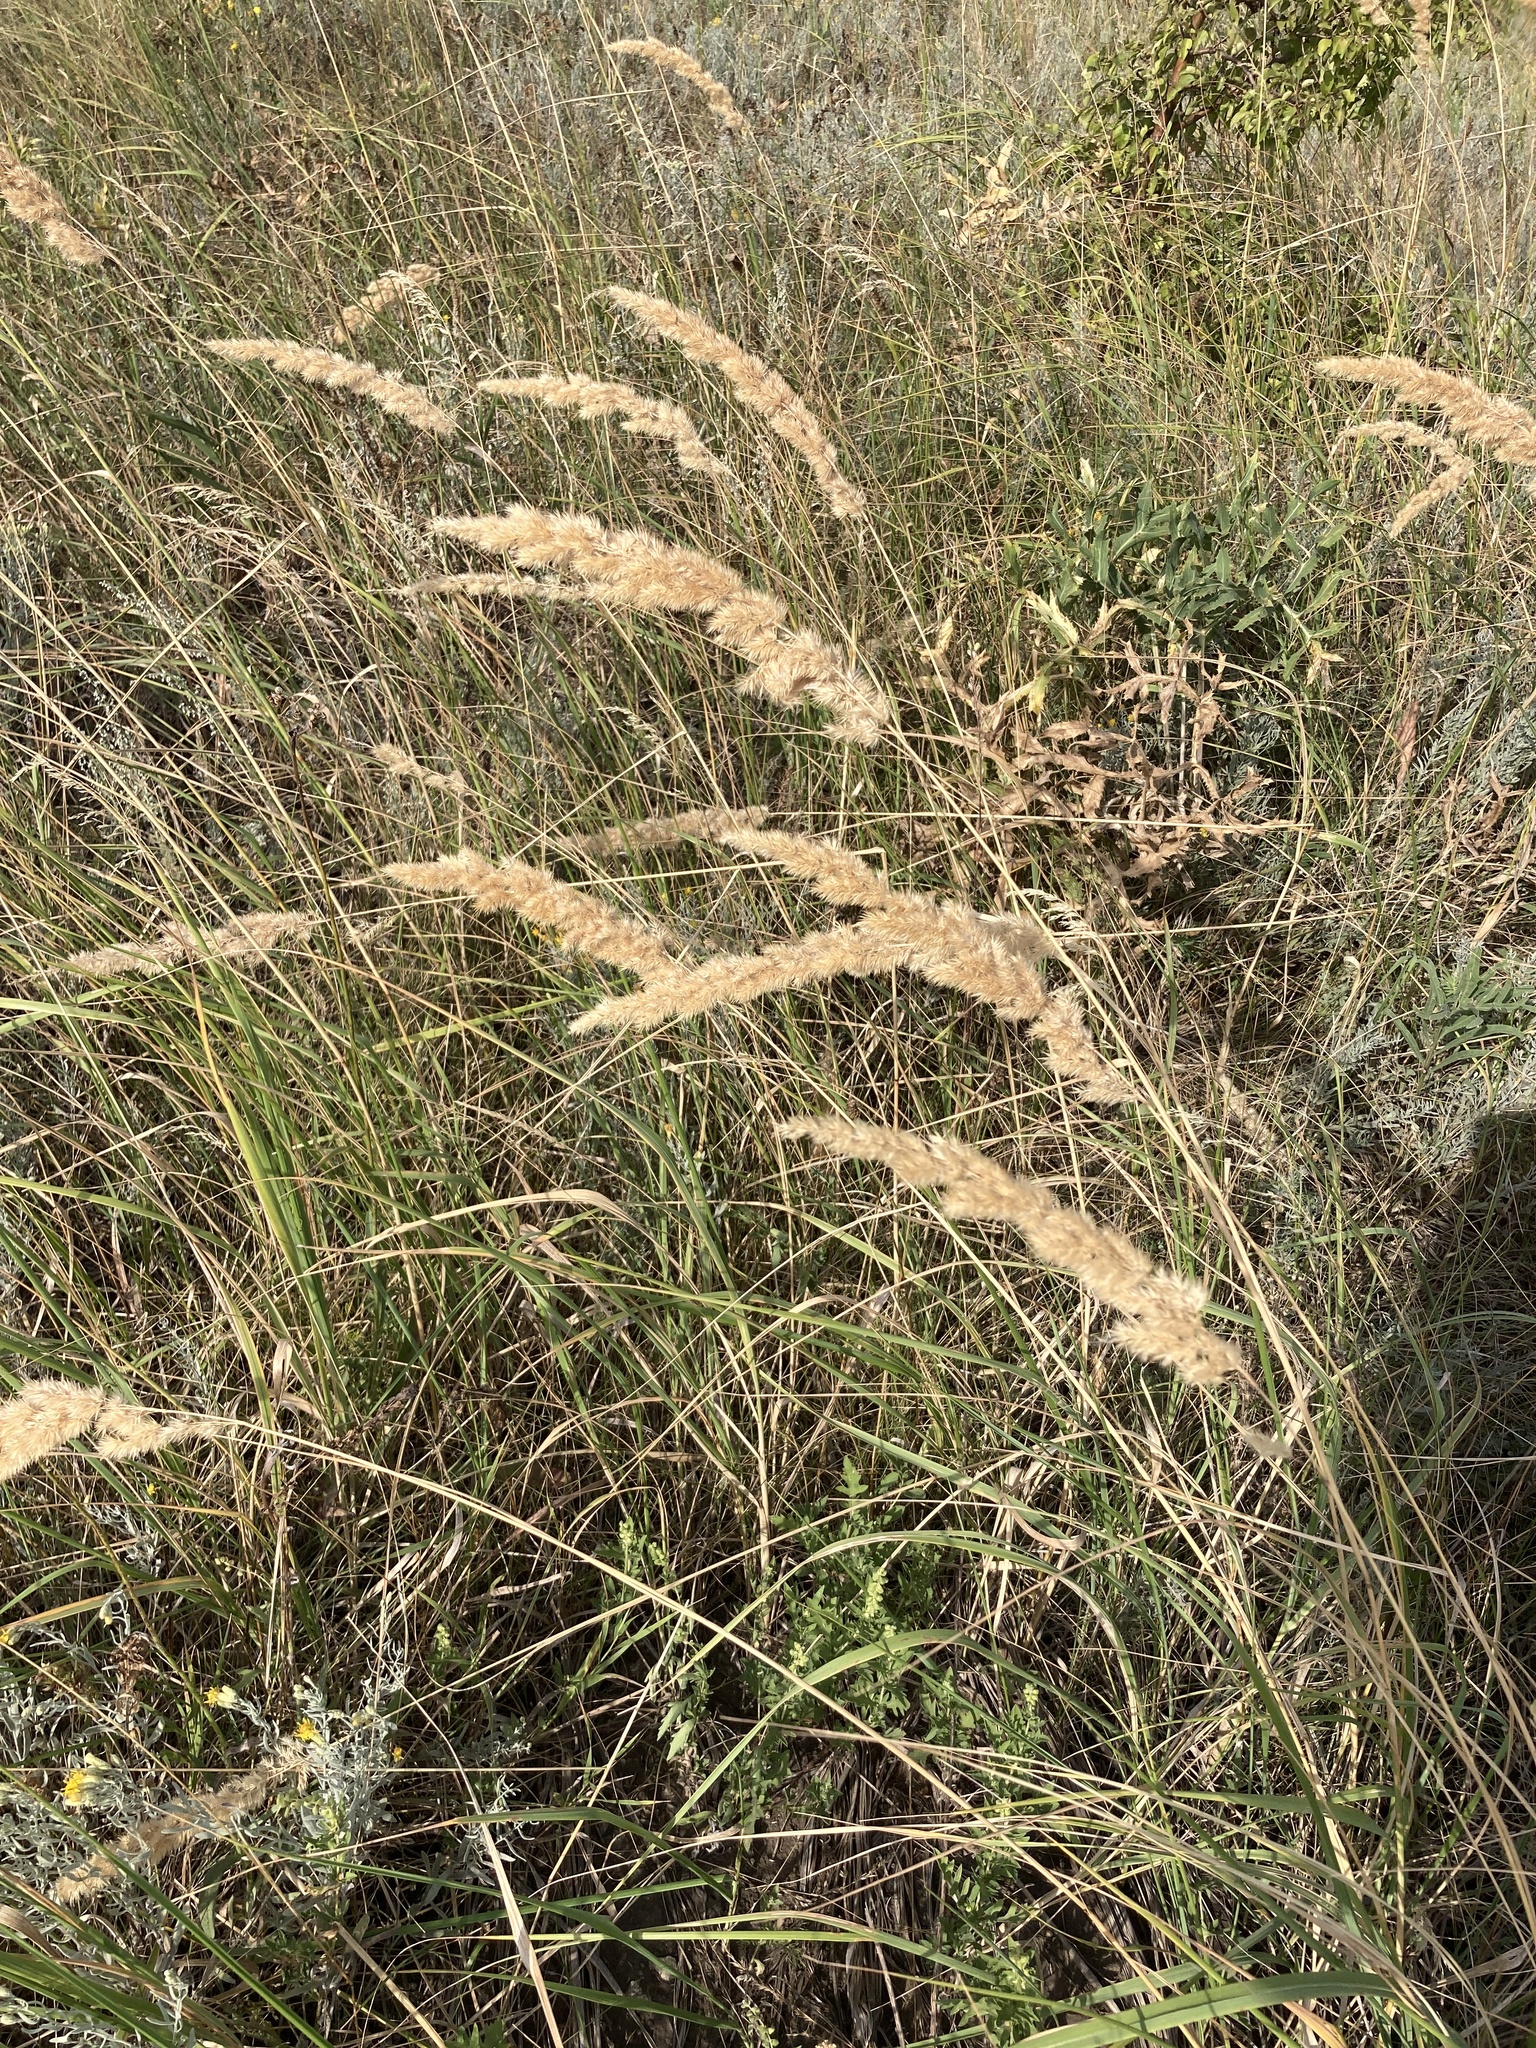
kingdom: Plantae
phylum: Tracheophyta
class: Liliopsida
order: Poales
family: Poaceae
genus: Calamagrostis
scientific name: Calamagrostis epigejos
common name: Wood small-reed
